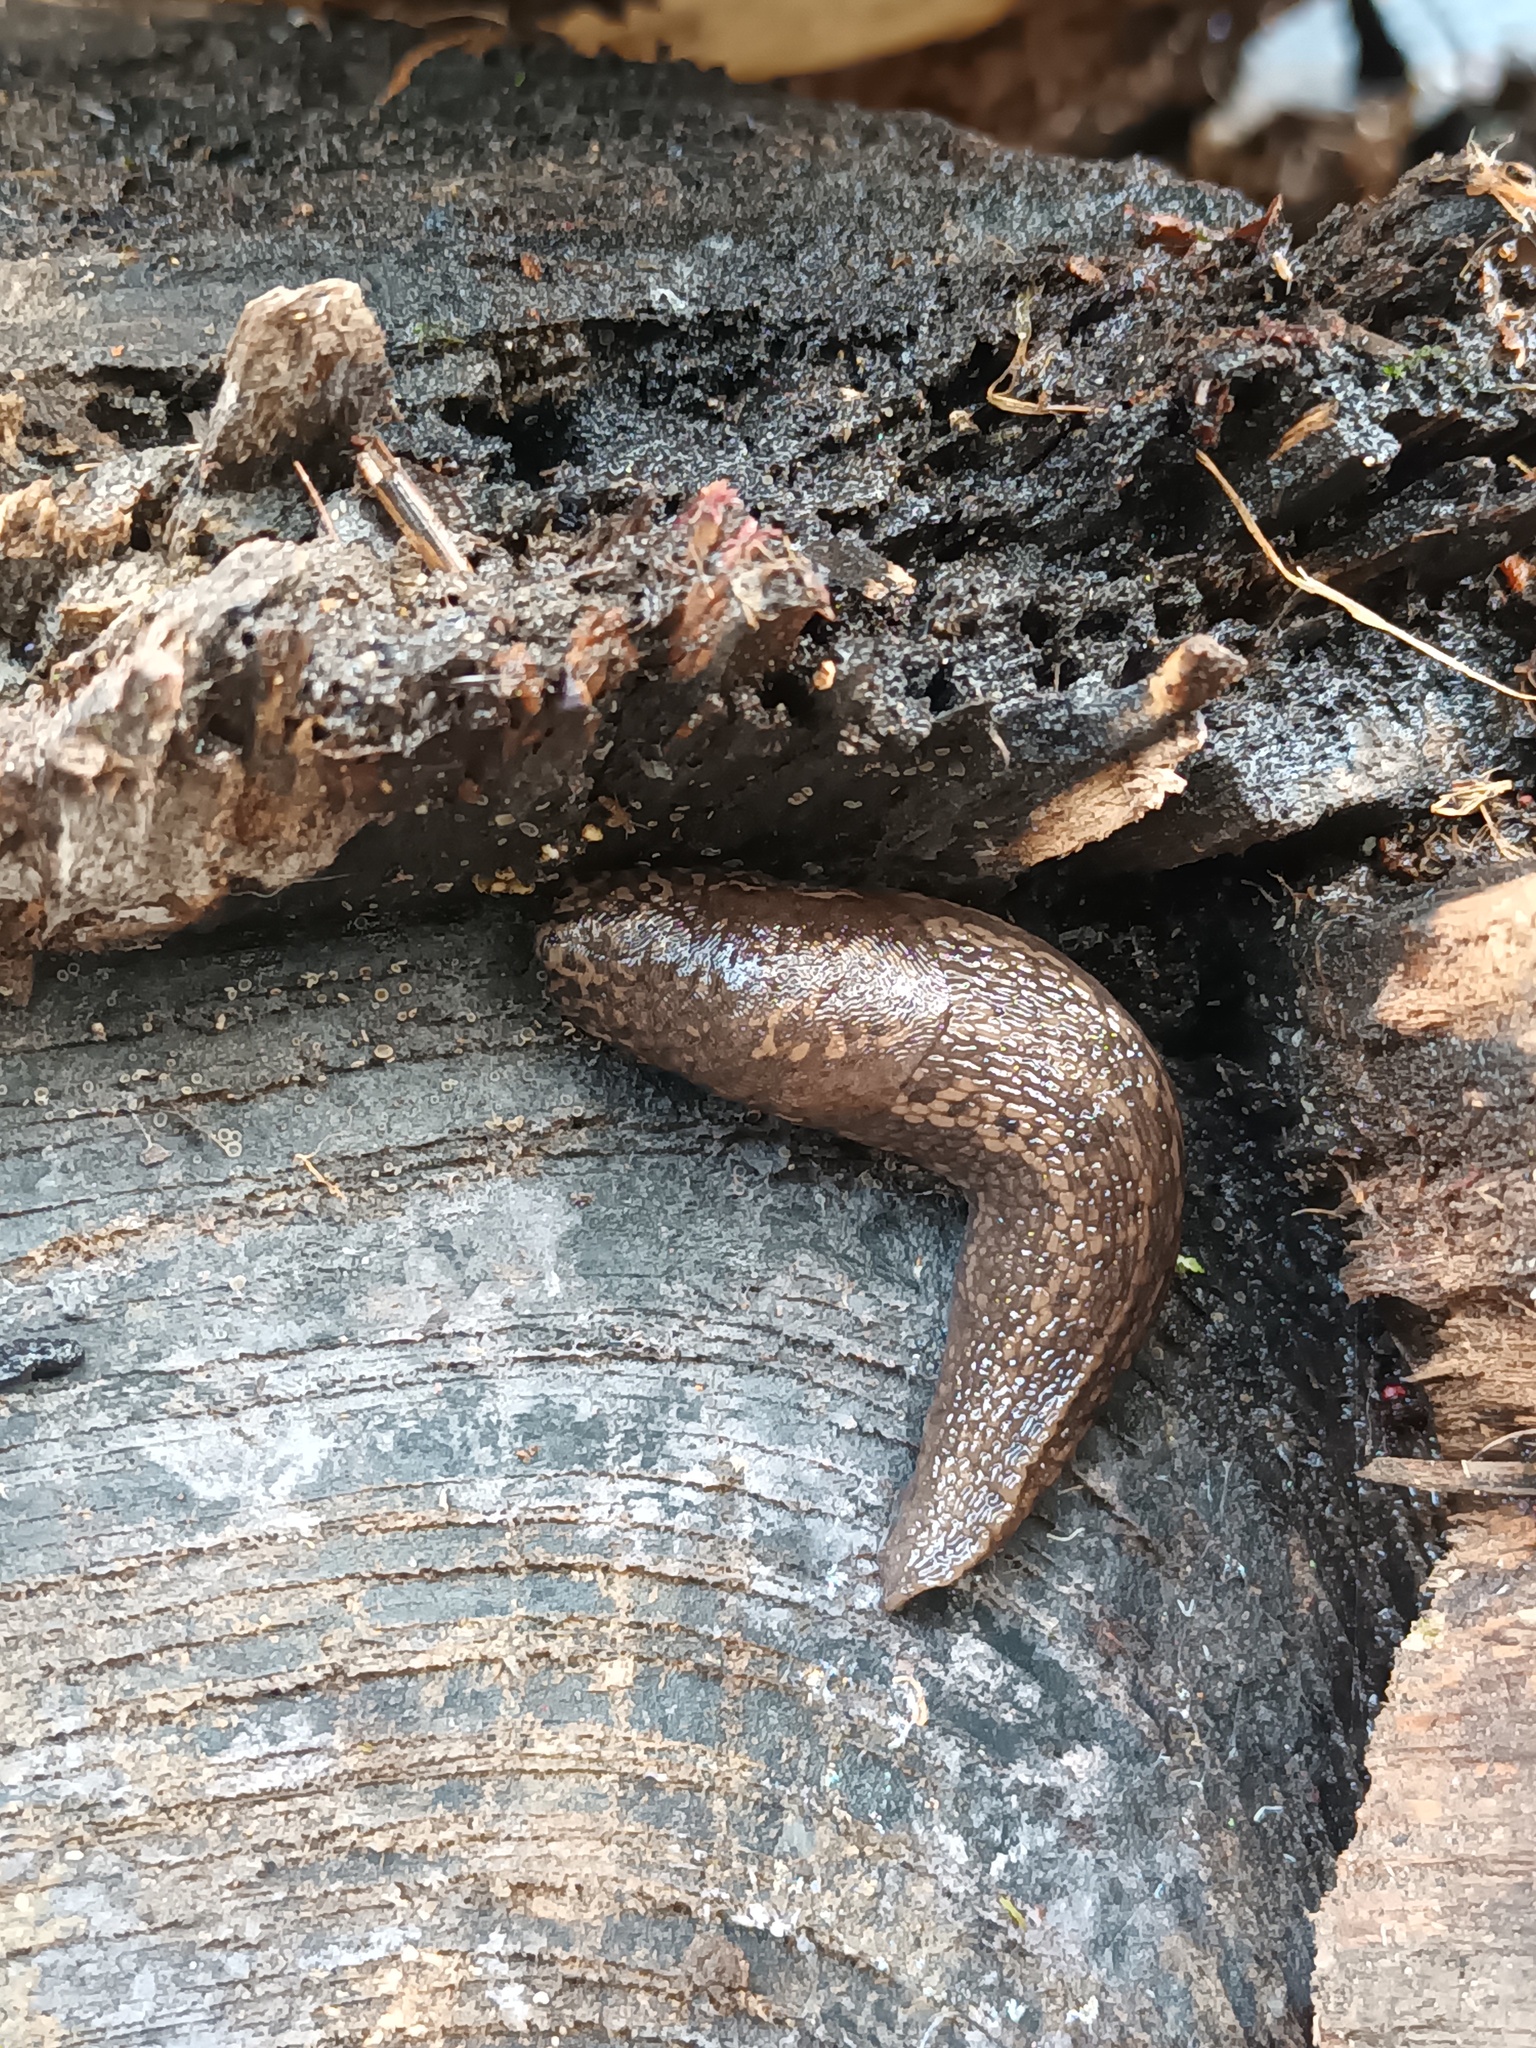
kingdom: Animalia
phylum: Mollusca
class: Gastropoda
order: Stylommatophora
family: Limacidae
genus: Limax
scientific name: Limax maximus
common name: Great grey slug
